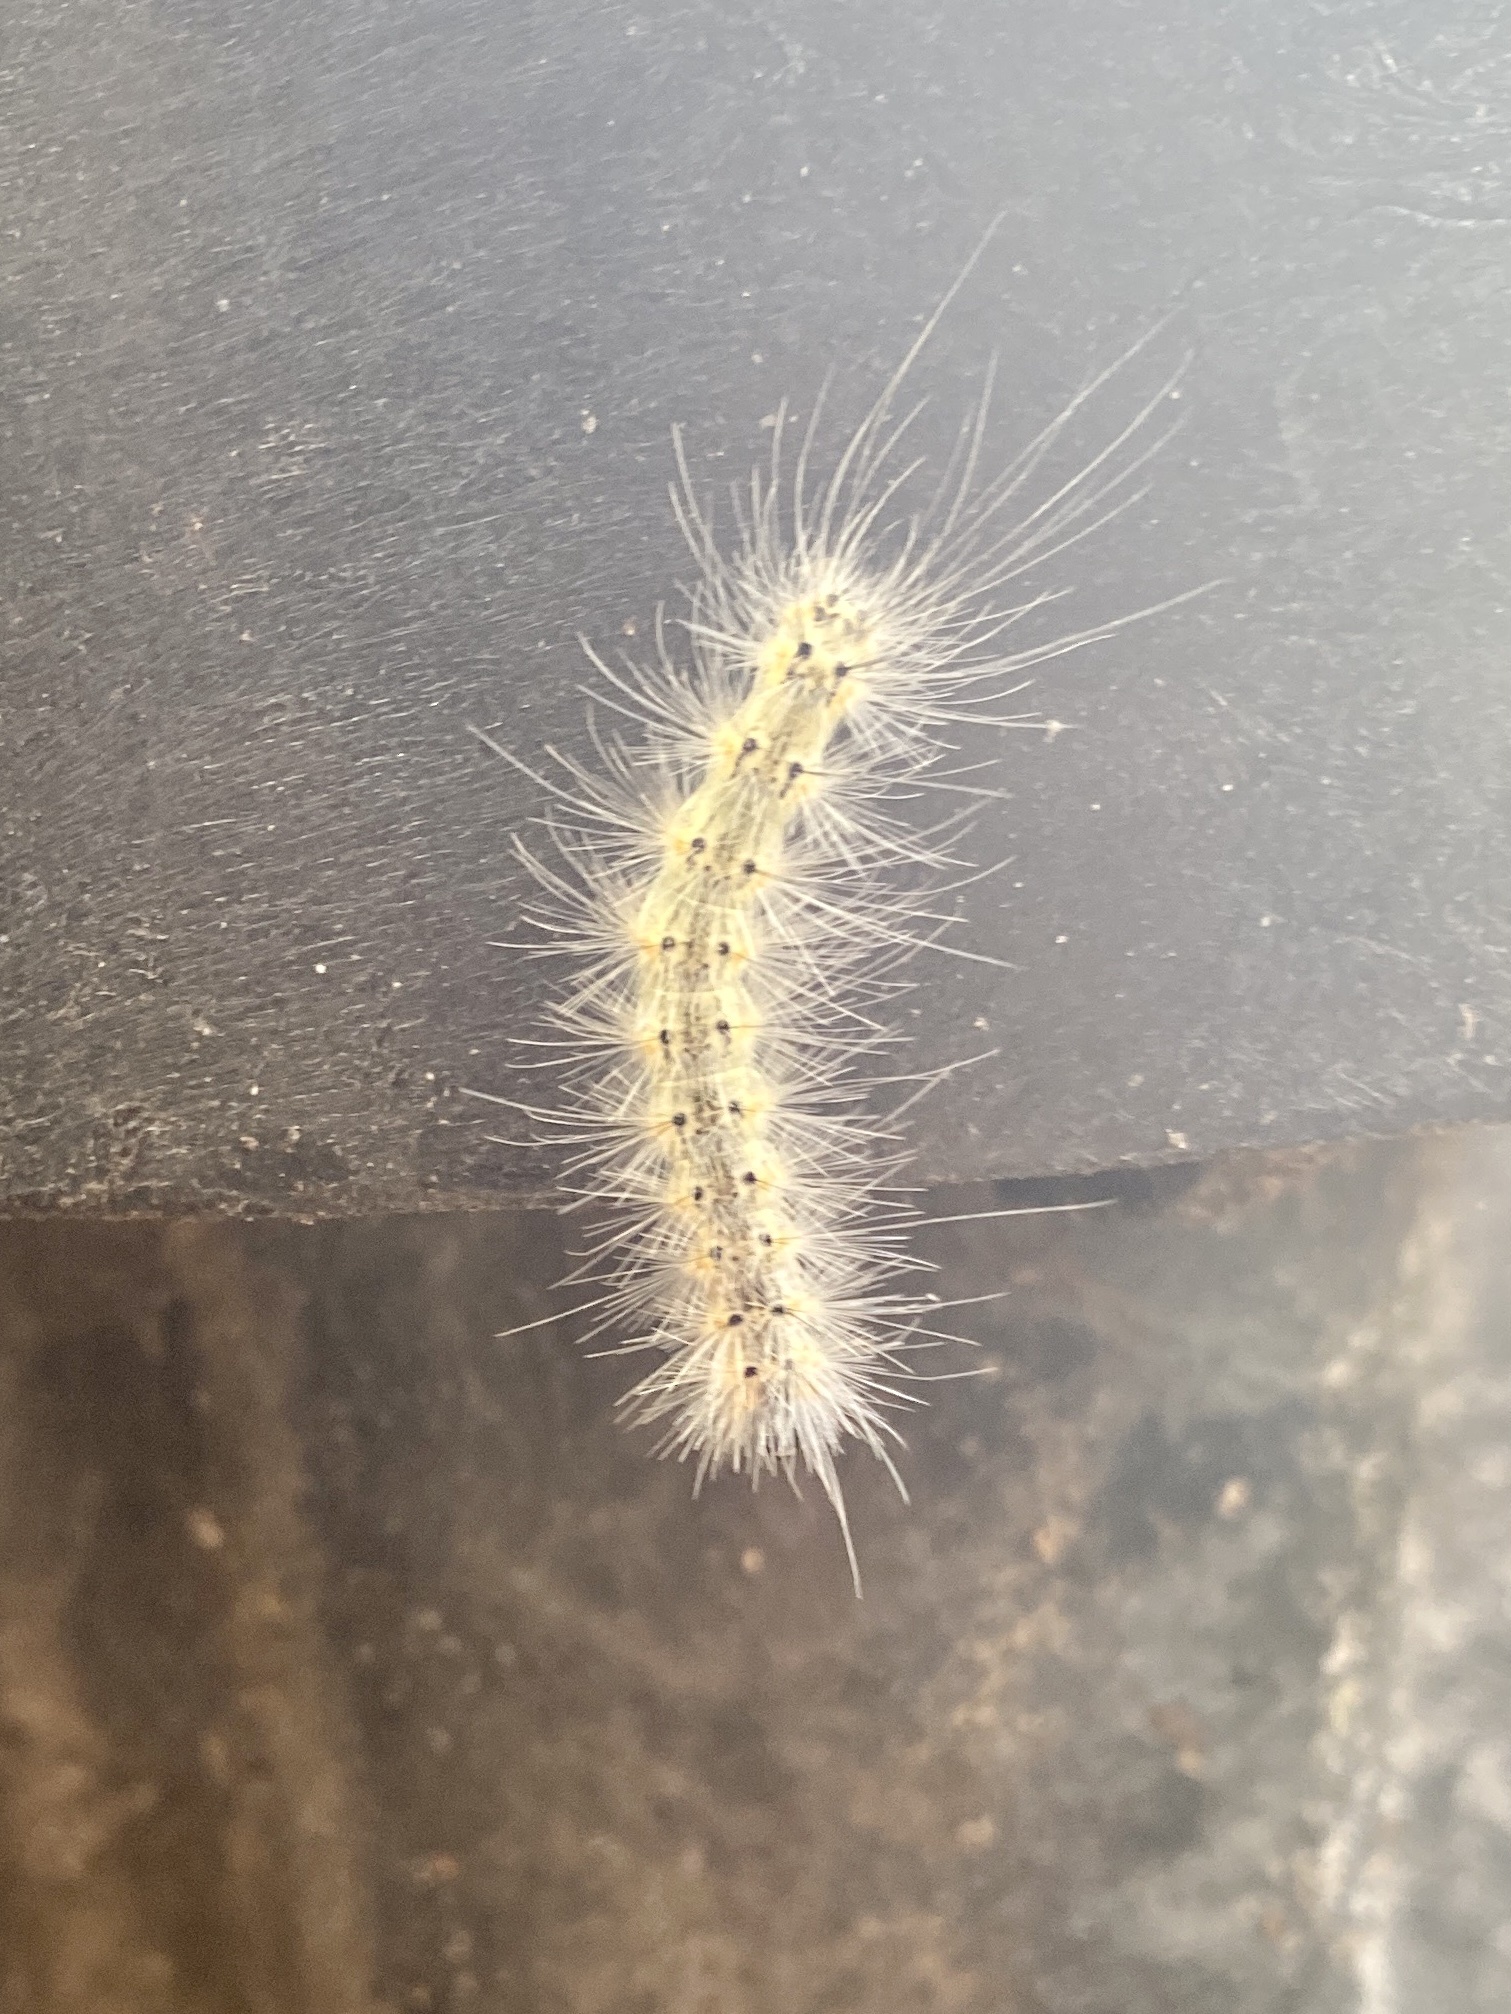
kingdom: Animalia
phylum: Arthropoda
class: Insecta
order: Lepidoptera
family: Erebidae
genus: Hyphantria
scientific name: Hyphantria cunea
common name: American white moth
